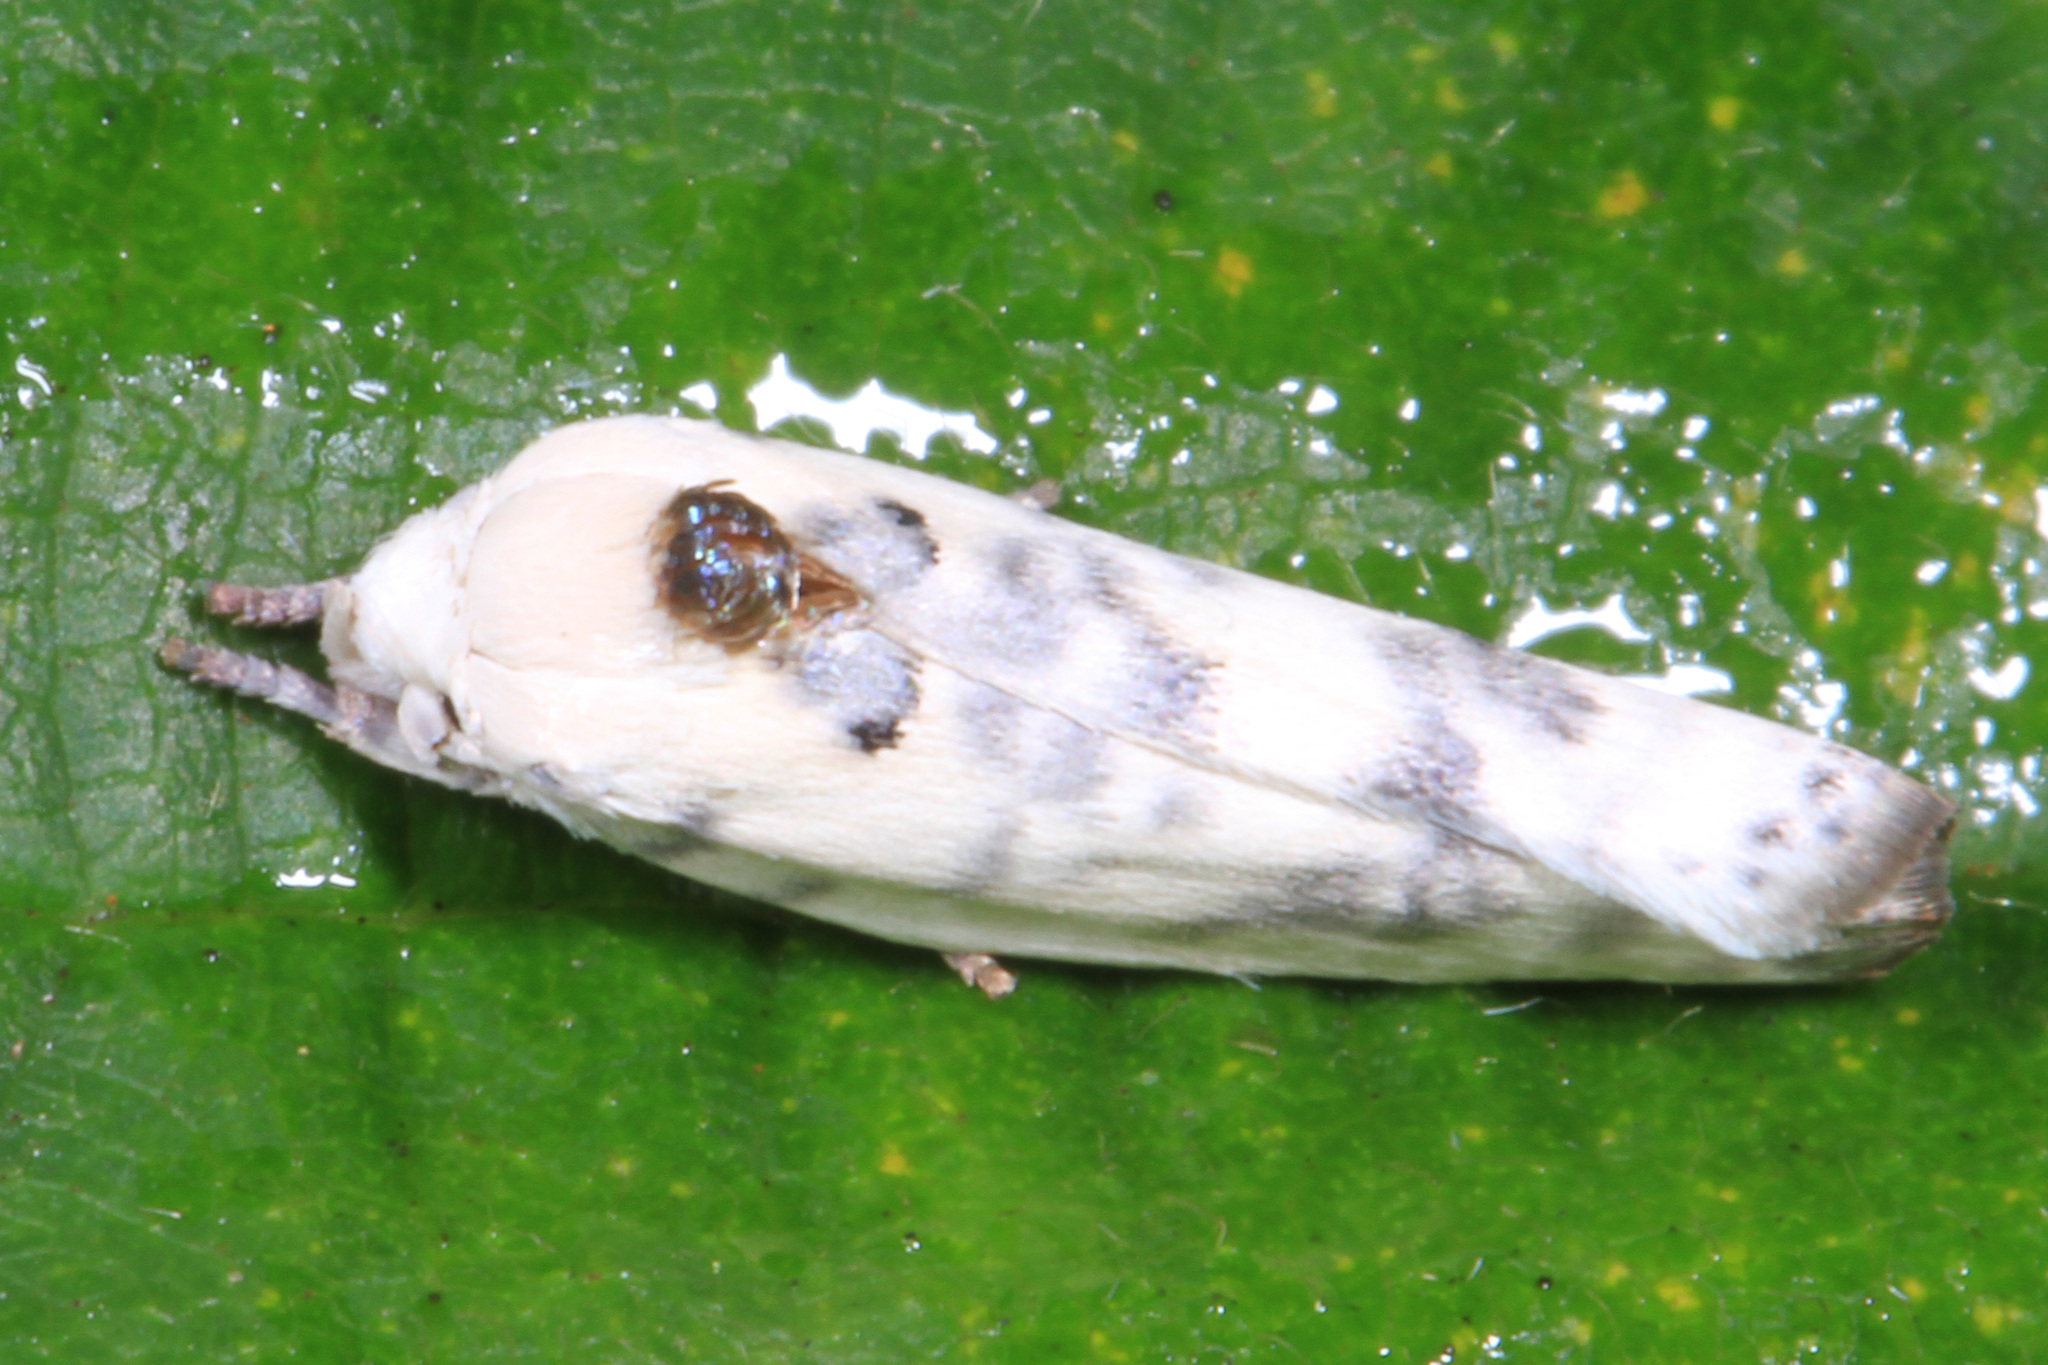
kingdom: Animalia
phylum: Arthropoda
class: Insecta
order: Lepidoptera
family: Depressariidae
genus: Antaeotricha
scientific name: Antaeotricha
